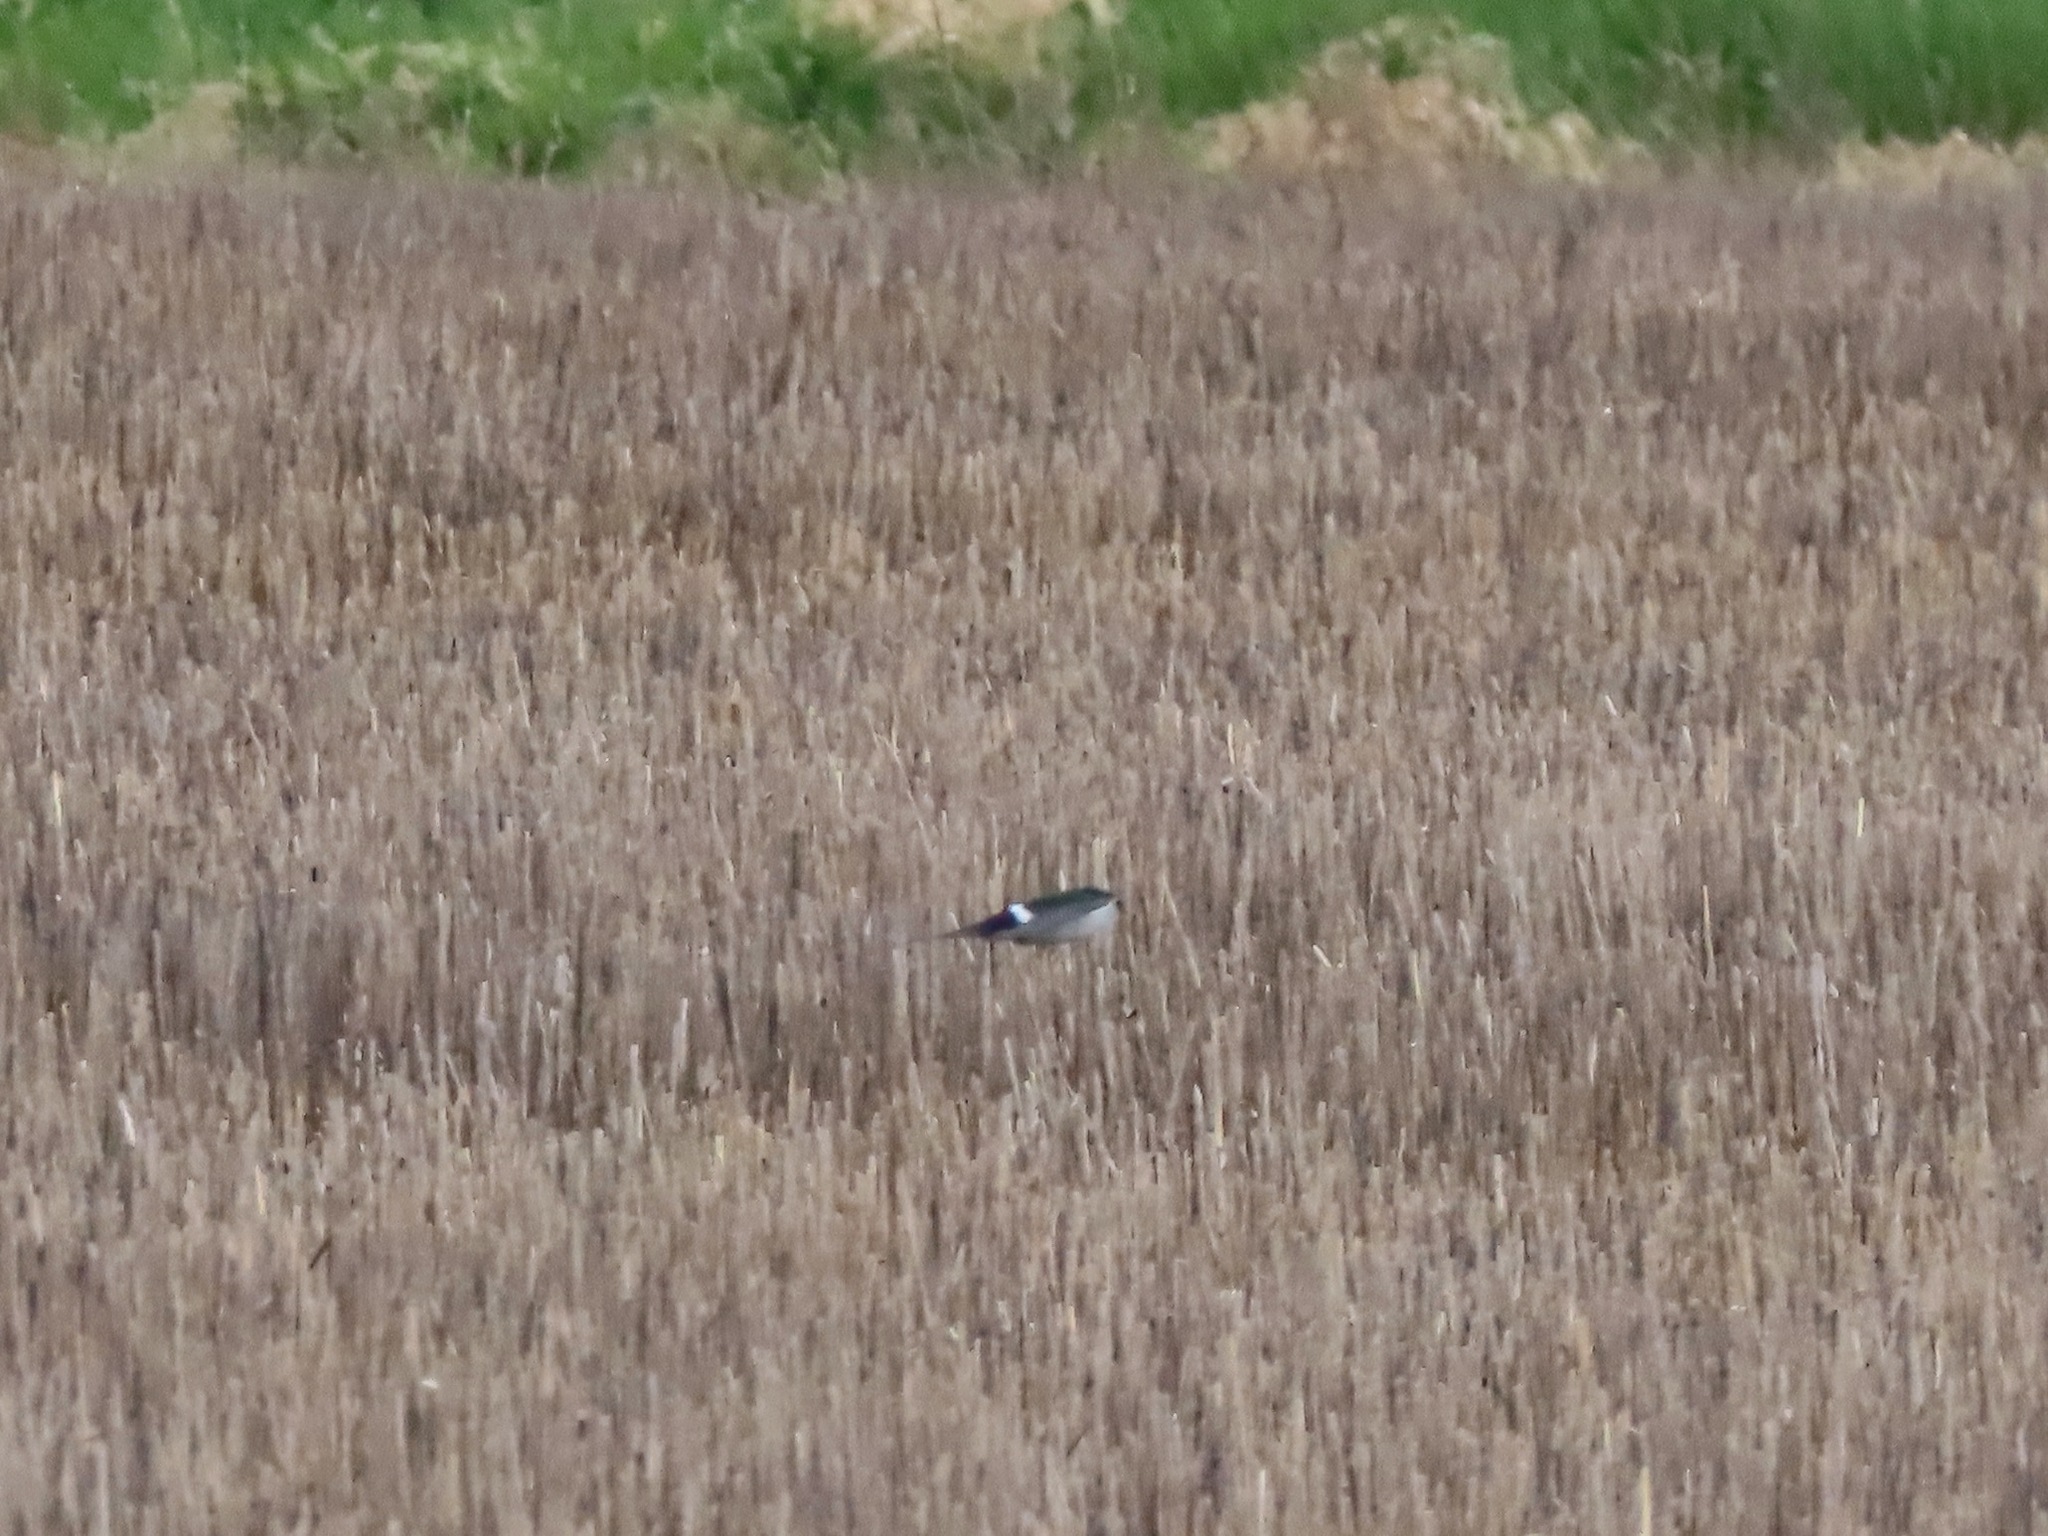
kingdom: Animalia
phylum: Chordata
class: Aves
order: Passeriformes
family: Hirundinidae
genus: Tachycineta
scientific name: Tachycineta thalassina
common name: Violet-green swallow
